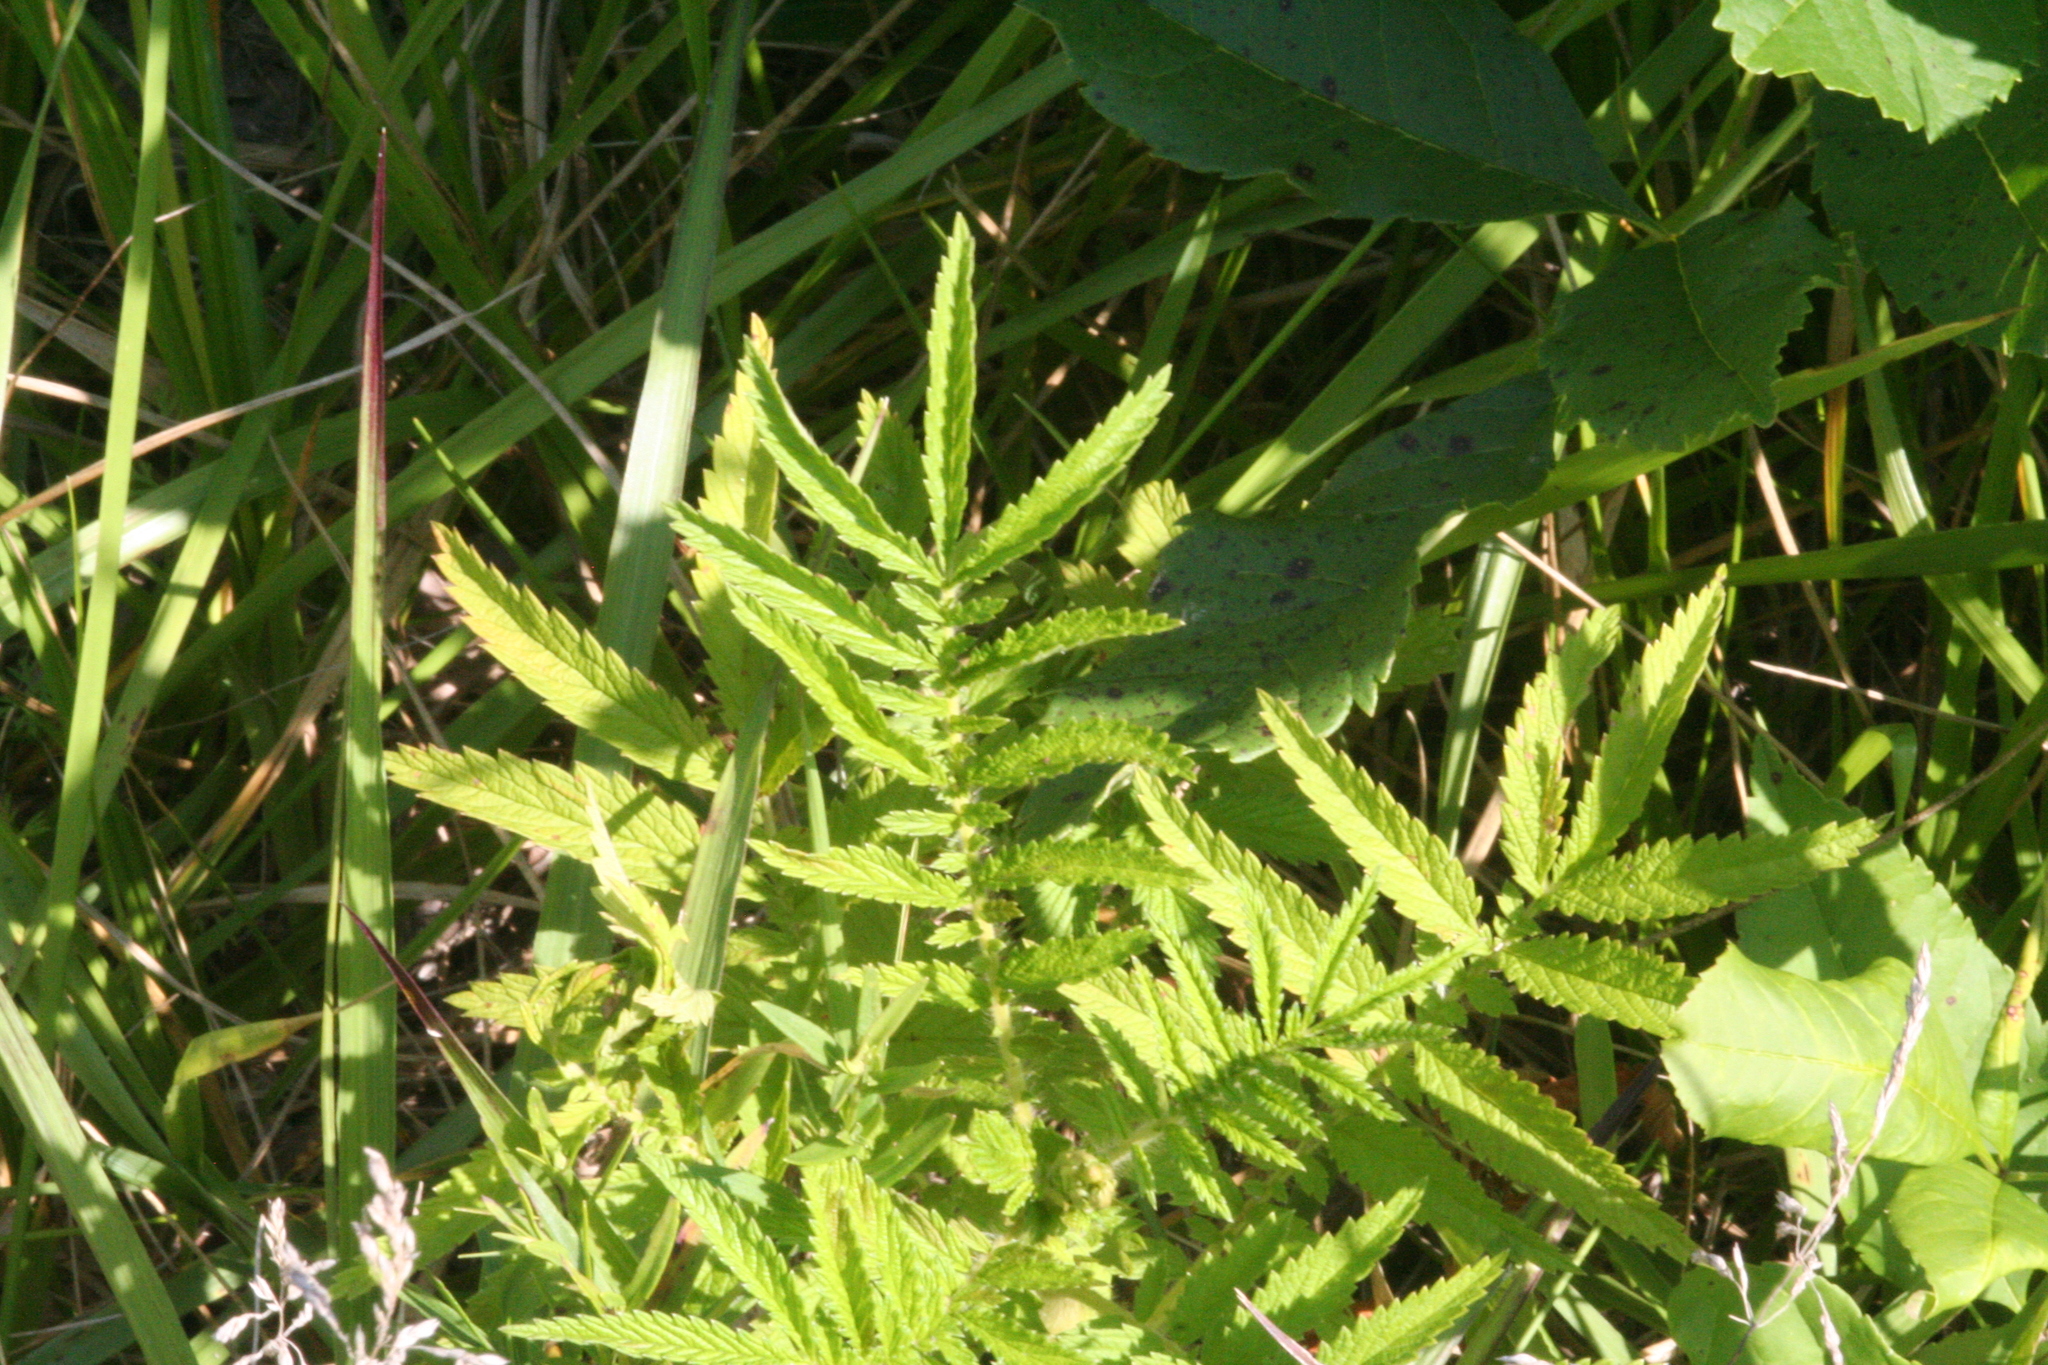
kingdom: Plantae
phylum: Tracheophyta
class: Magnoliopsida
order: Rosales
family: Rosaceae
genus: Agrimonia
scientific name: Agrimonia parviflora
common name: Harvest-lice
